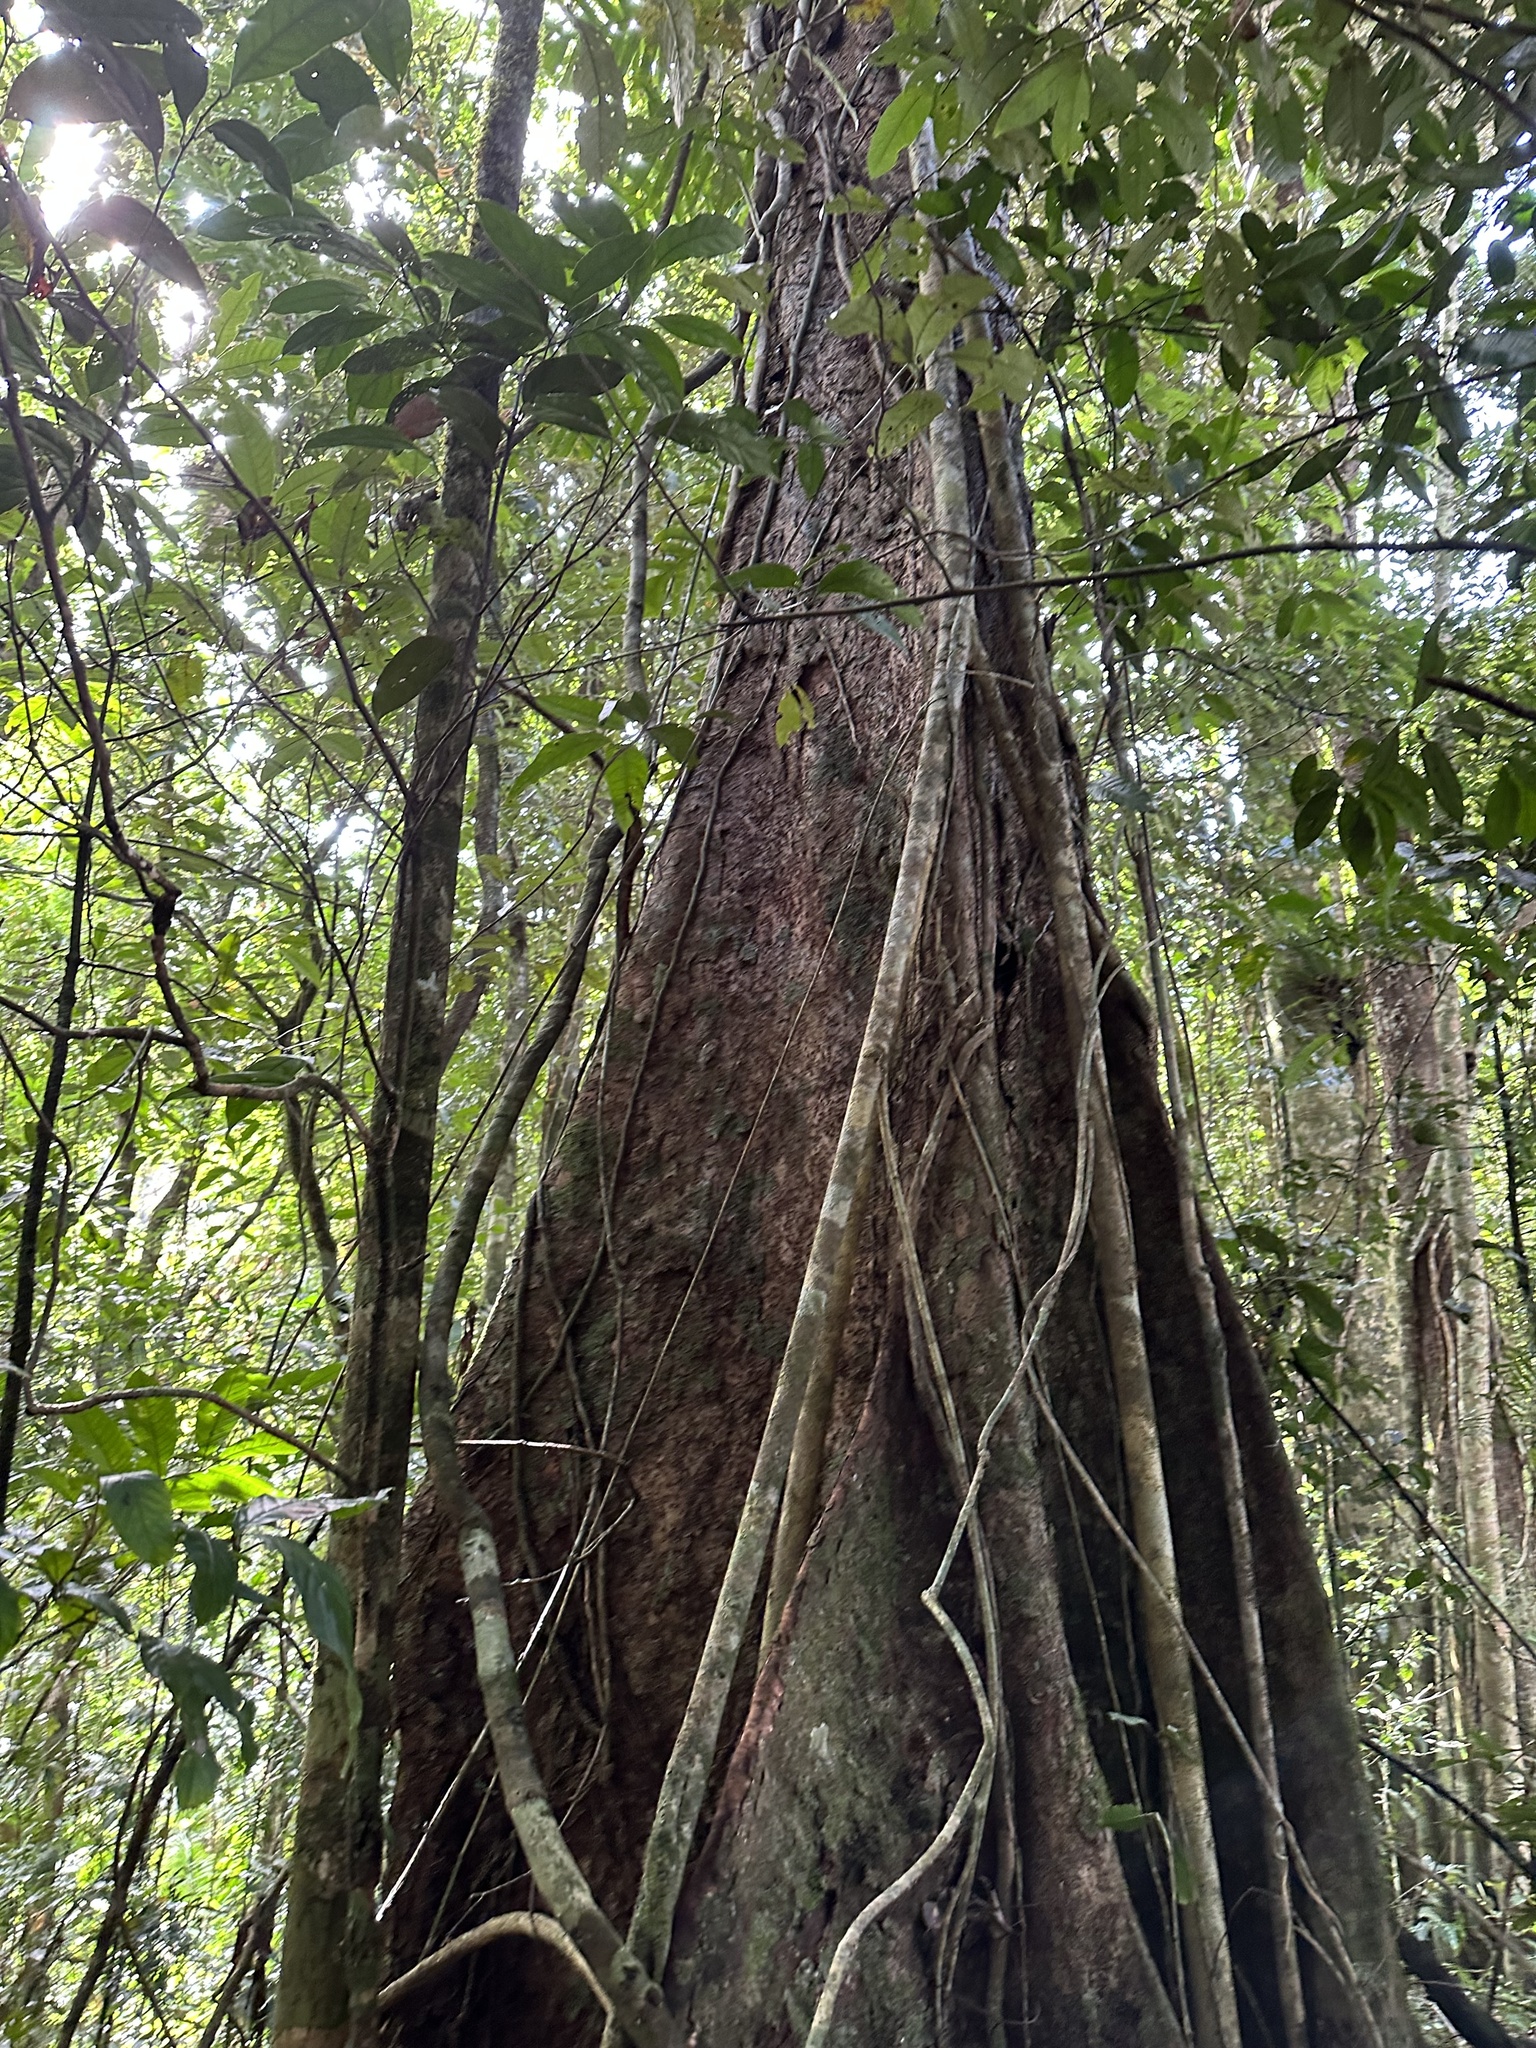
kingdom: Plantae
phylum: Tracheophyta
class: Magnoliopsida
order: Sapindales
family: Meliaceae
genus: Didymocheton
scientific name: Didymocheton pettigrewianus
